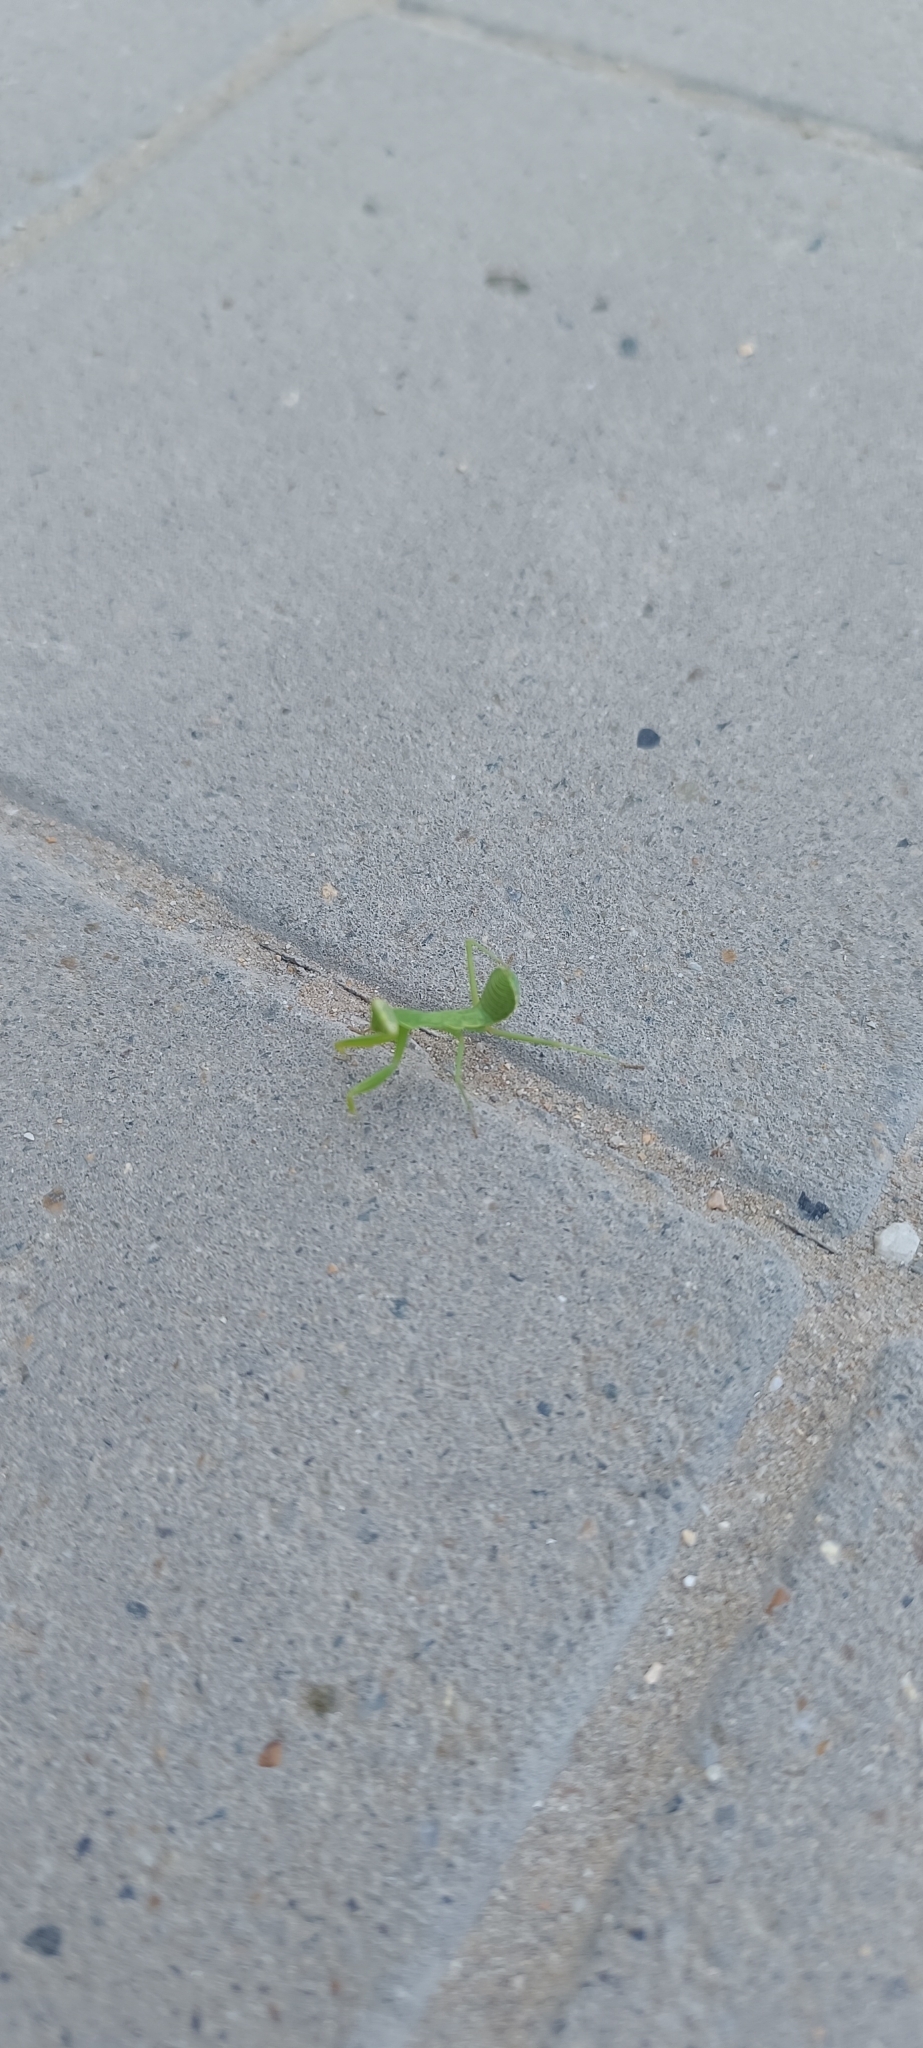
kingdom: Animalia
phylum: Arthropoda
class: Insecta
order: Mantodea
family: Mantidae
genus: Hierodula
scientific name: Hierodula transcaucasica
